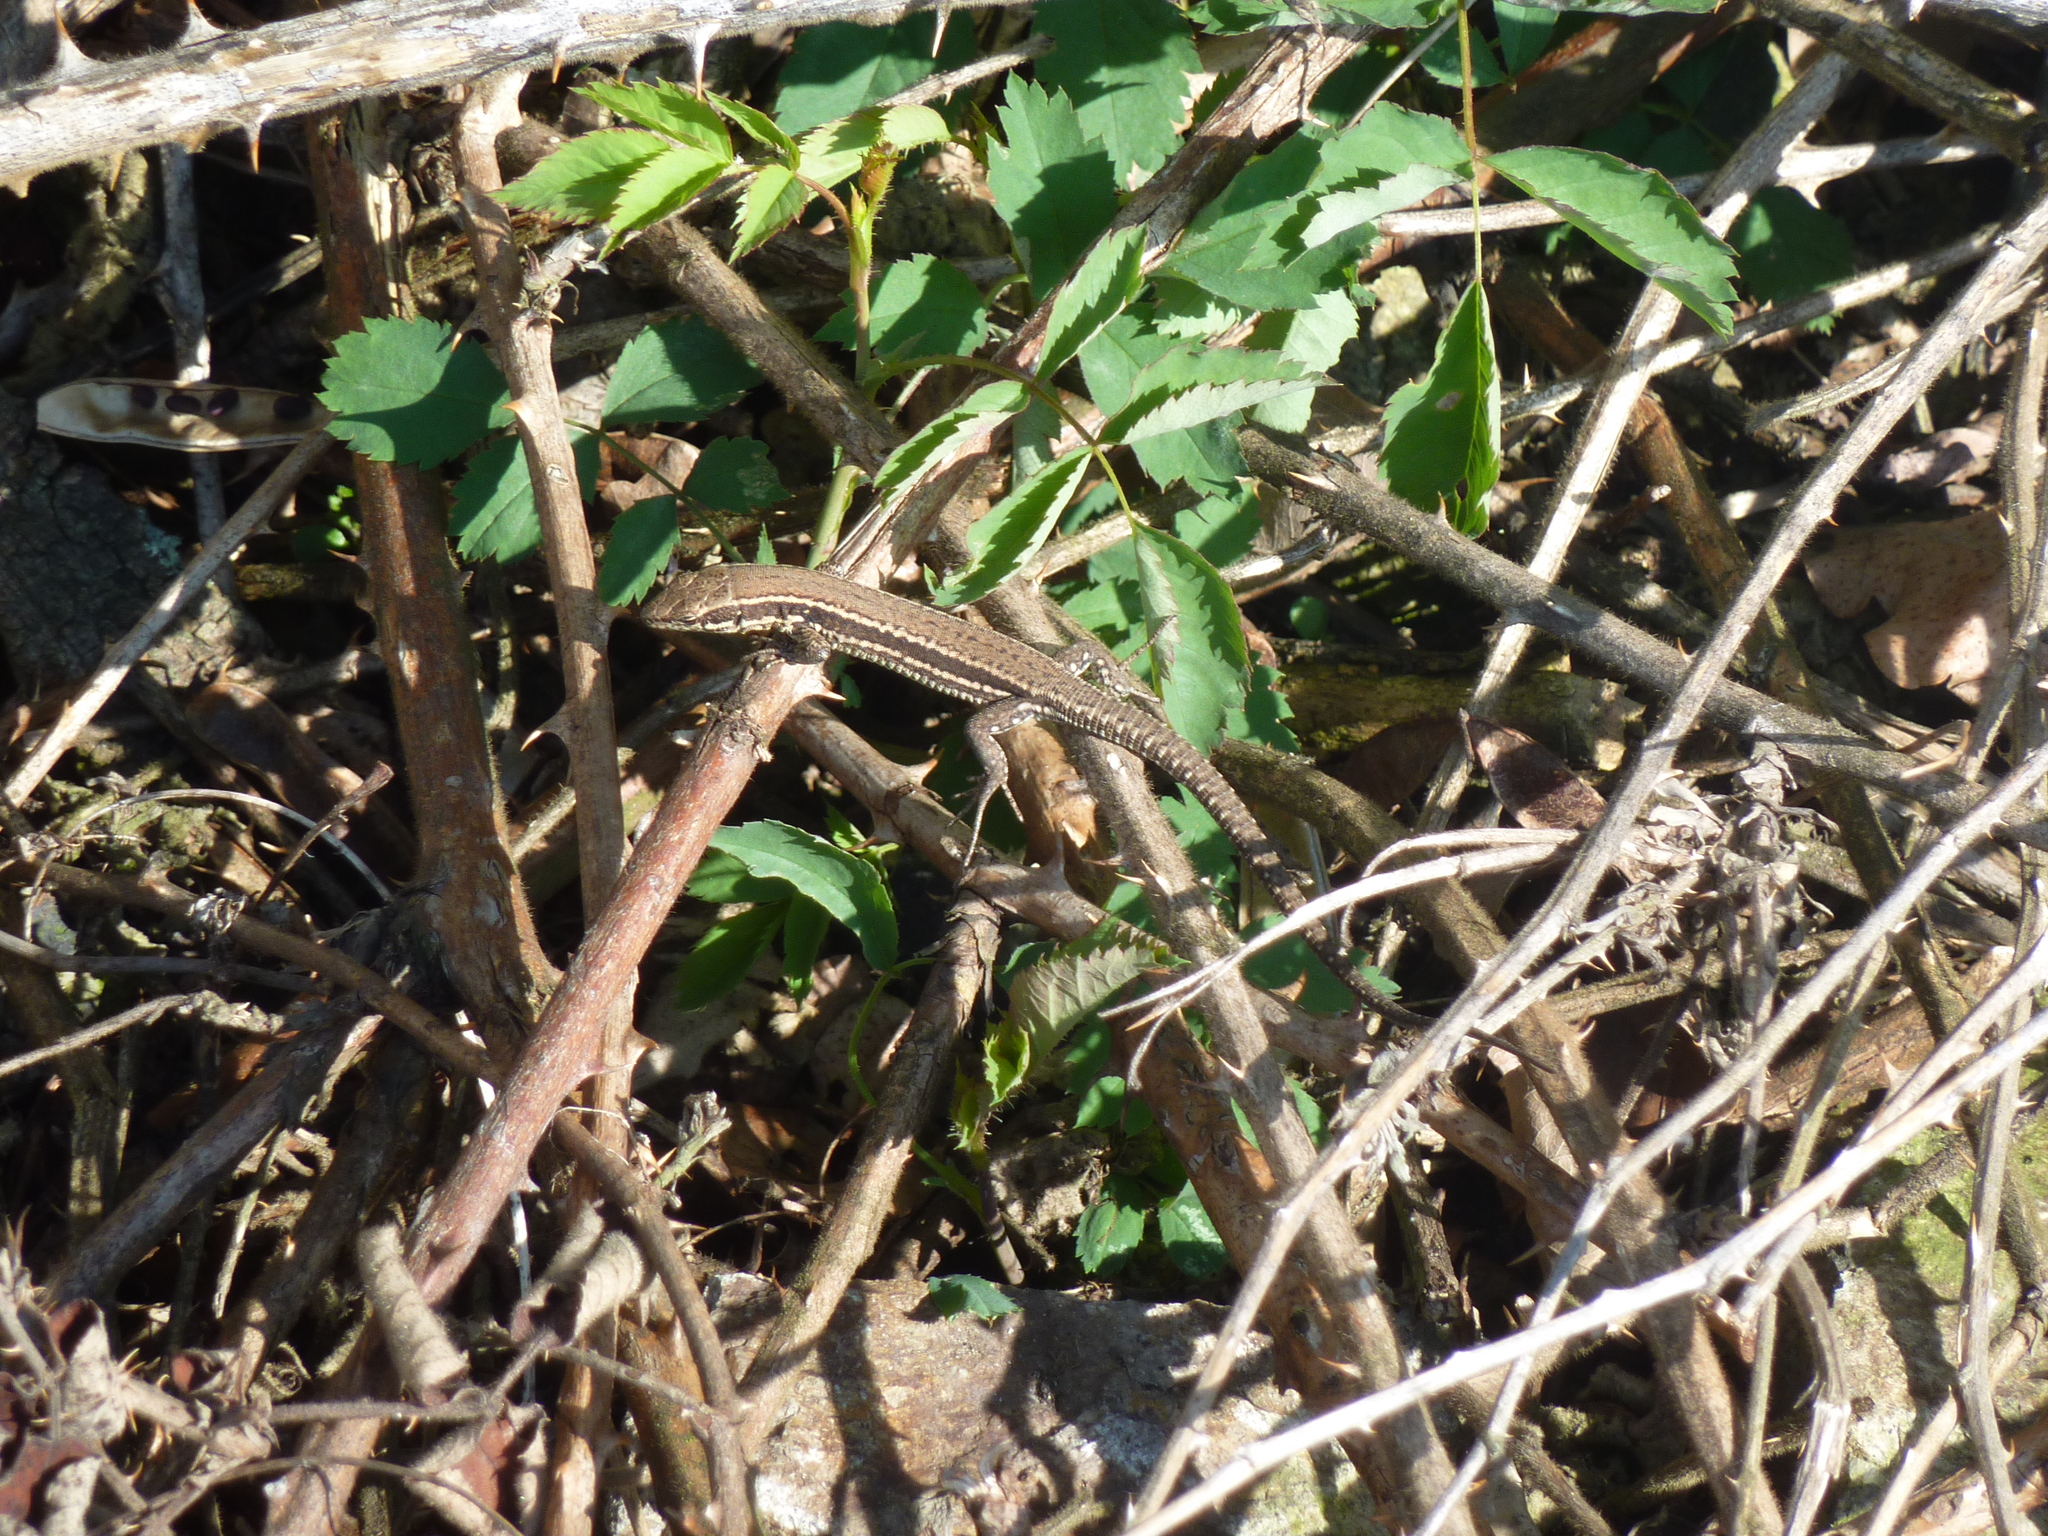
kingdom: Animalia
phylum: Chordata
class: Squamata
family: Lacertidae
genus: Podarcis
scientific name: Podarcis muralis
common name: Common wall lizard
